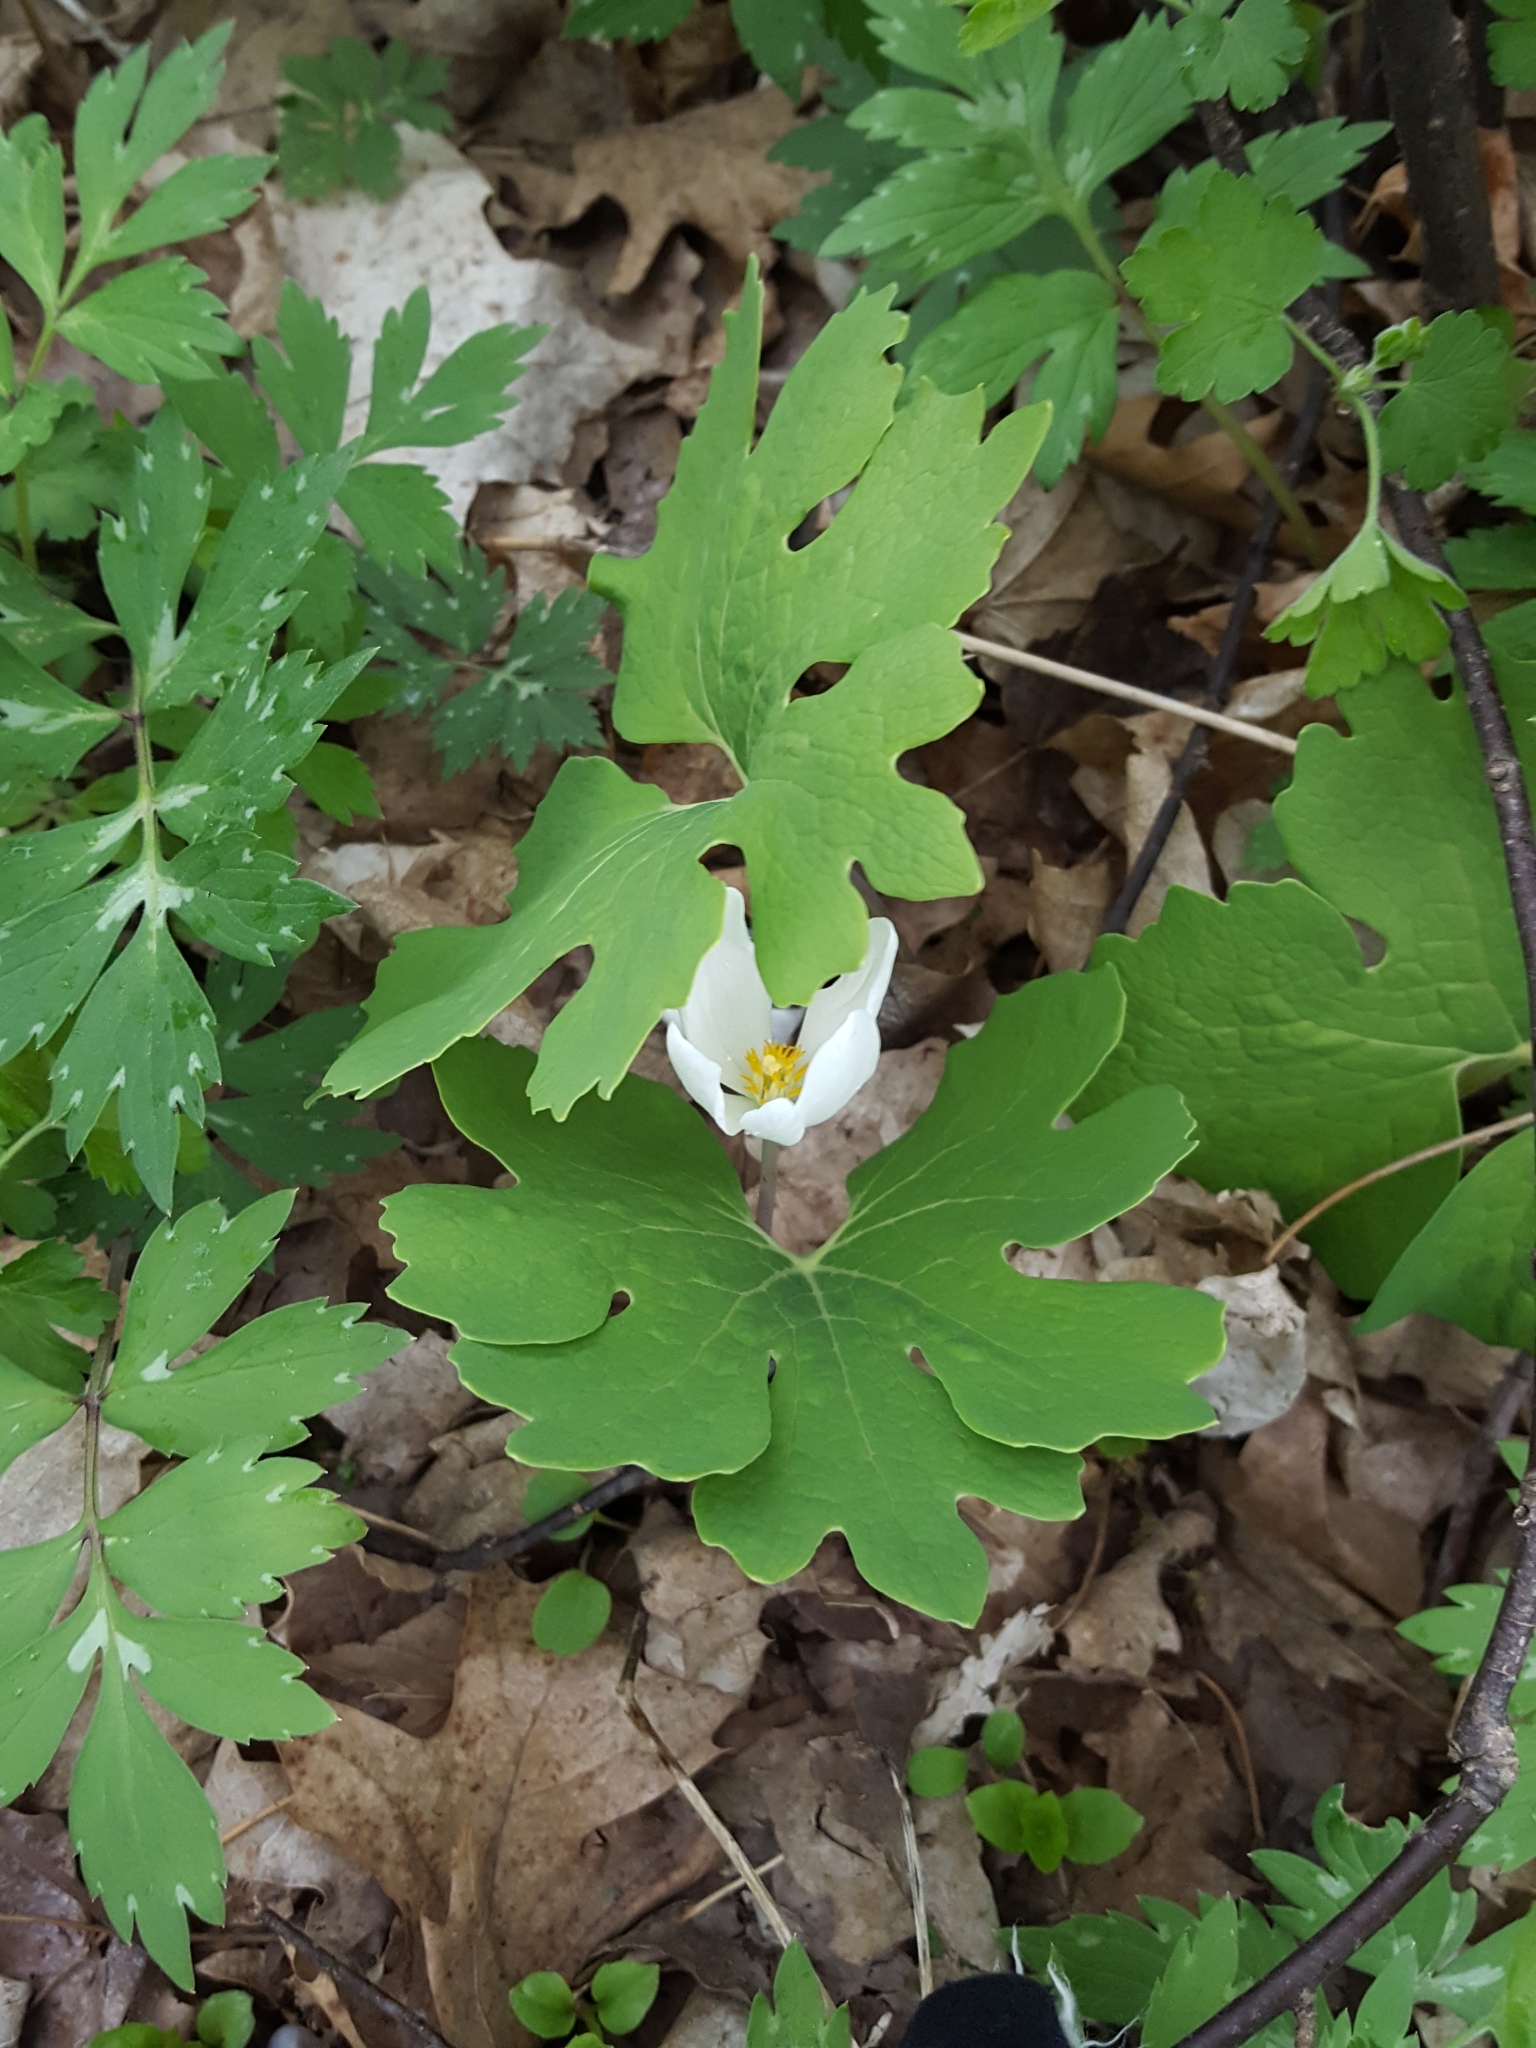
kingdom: Plantae
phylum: Tracheophyta
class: Magnoliopsida
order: Ranunculales
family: Papaveraceae
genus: Sanguinaria
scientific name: Sanguinaria canadensis
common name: Bloodroot
